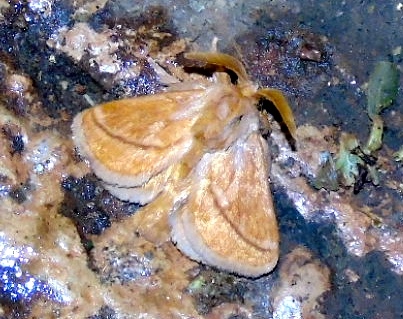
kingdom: Animalia
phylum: Arthropoda
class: Insecta
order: Lepidoptera
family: Limacodidae
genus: Perola
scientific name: Perola clara
